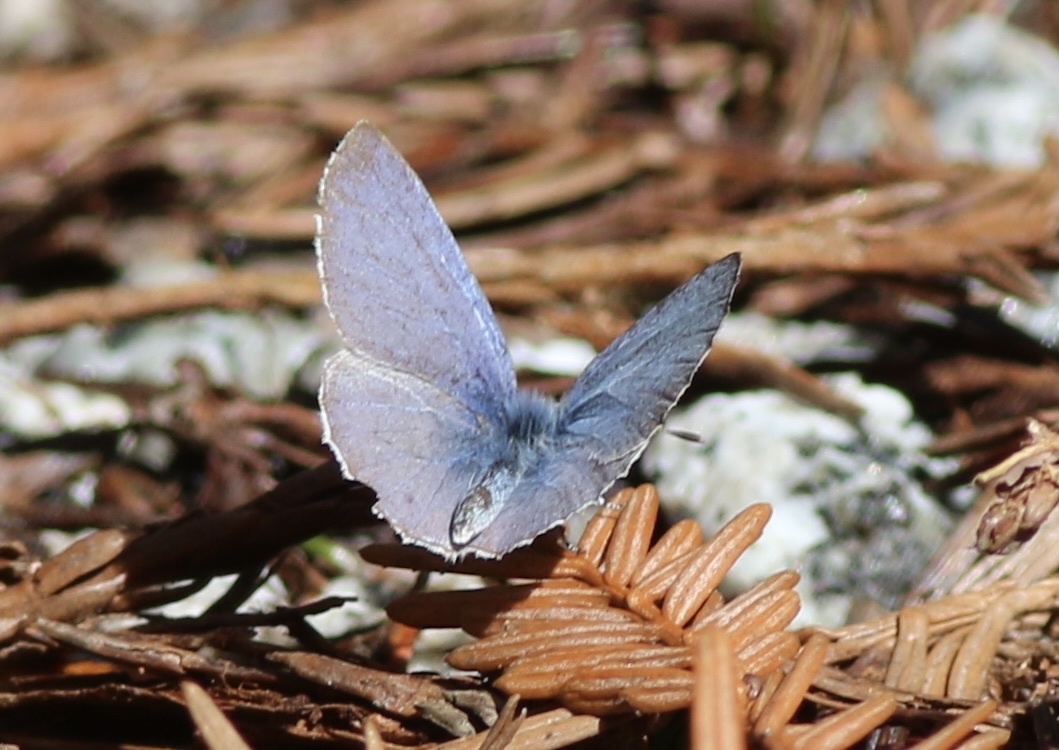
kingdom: Animalia
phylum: Arthropoda
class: Insecta
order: Lepidoptera
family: Lycaenidae
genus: Celastrina
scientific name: Celastrina ladon
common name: Spring azure
